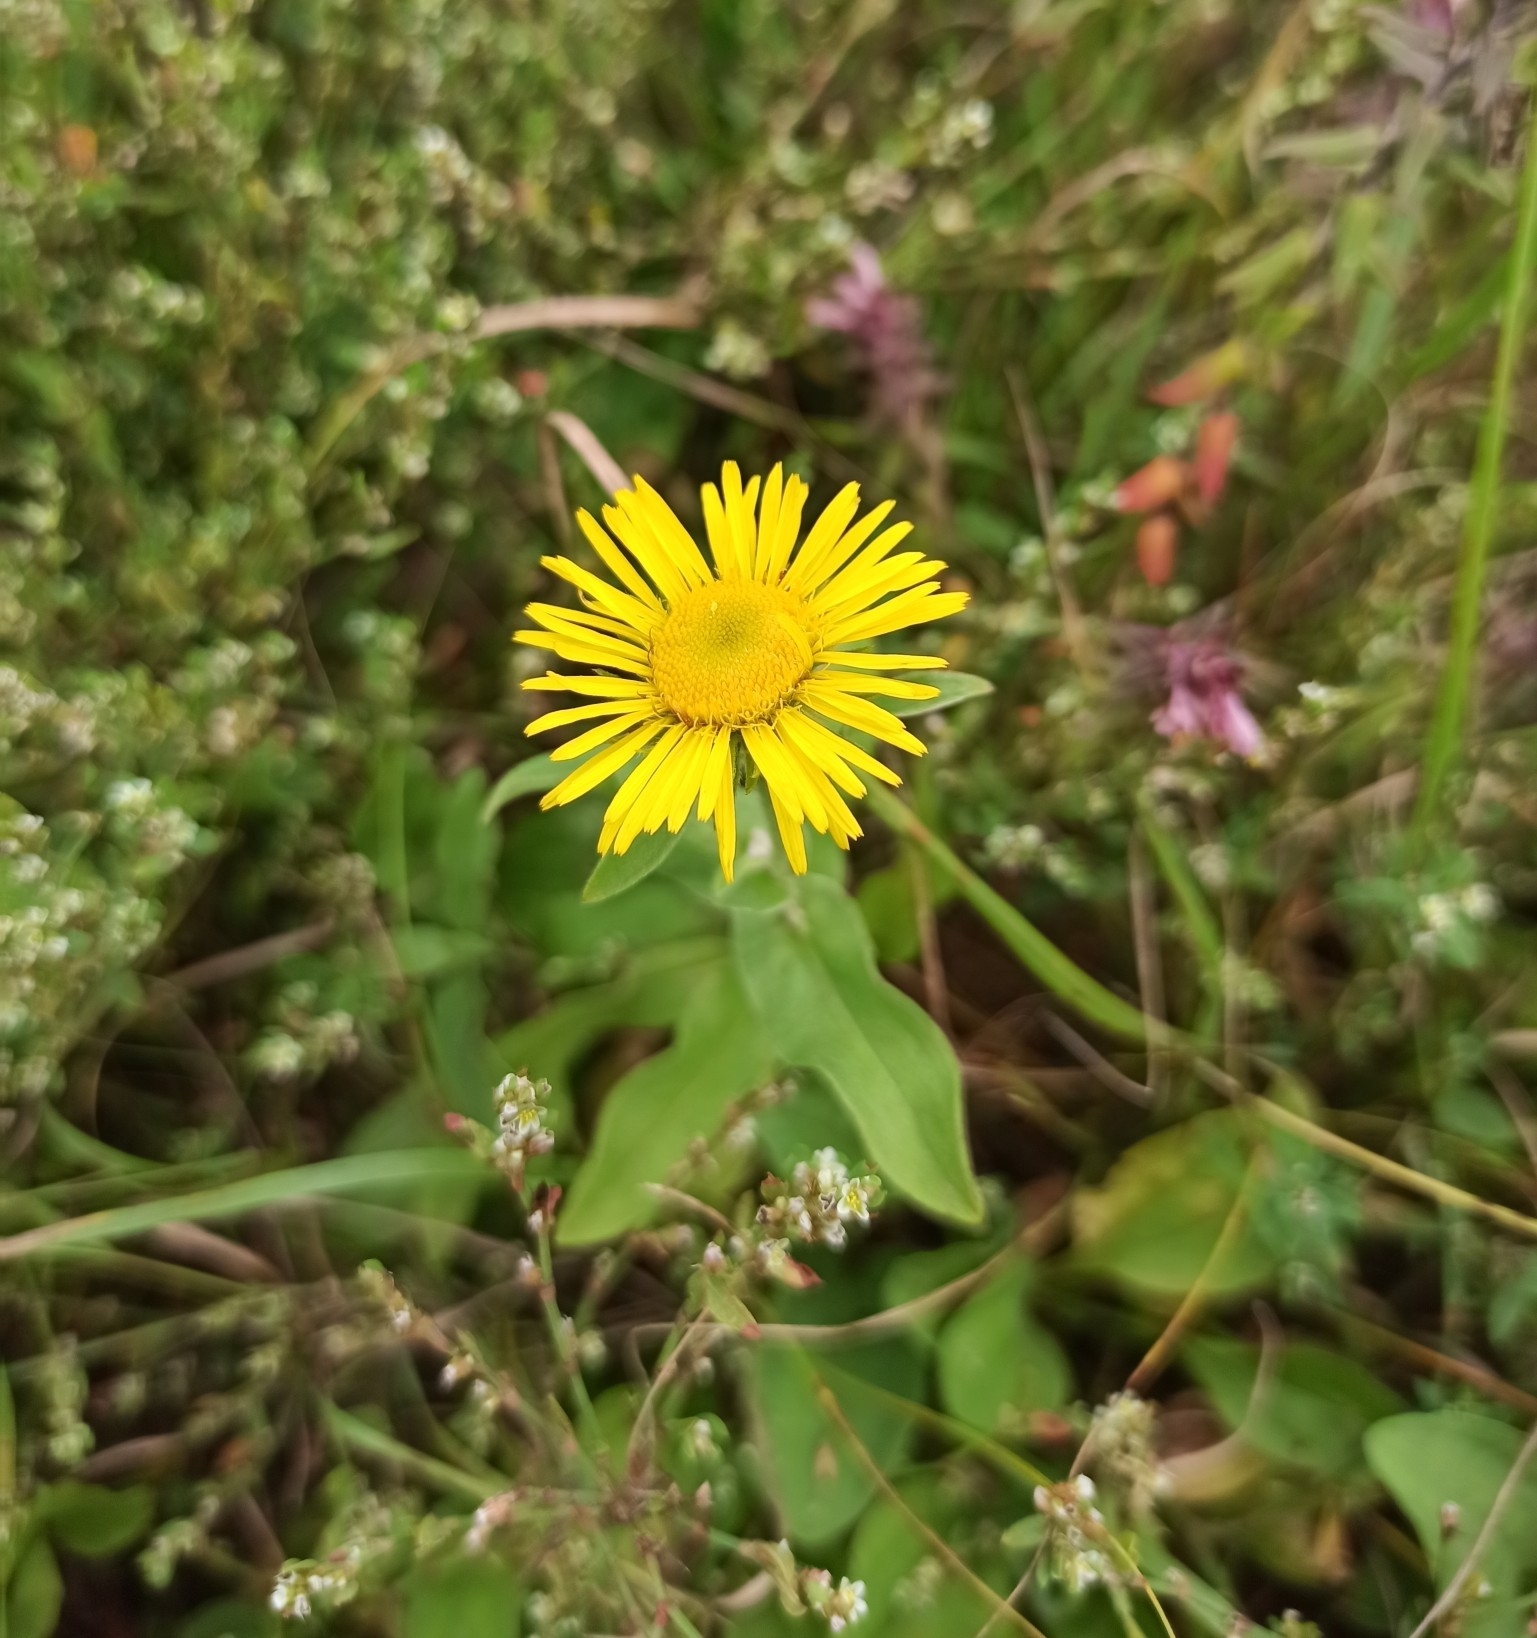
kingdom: Plantae
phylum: Tracheophyta
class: Magnoliopsida
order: Asterales
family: Asteraceae
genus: Pentanema
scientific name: Pentanema britannicum
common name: British elecampane
